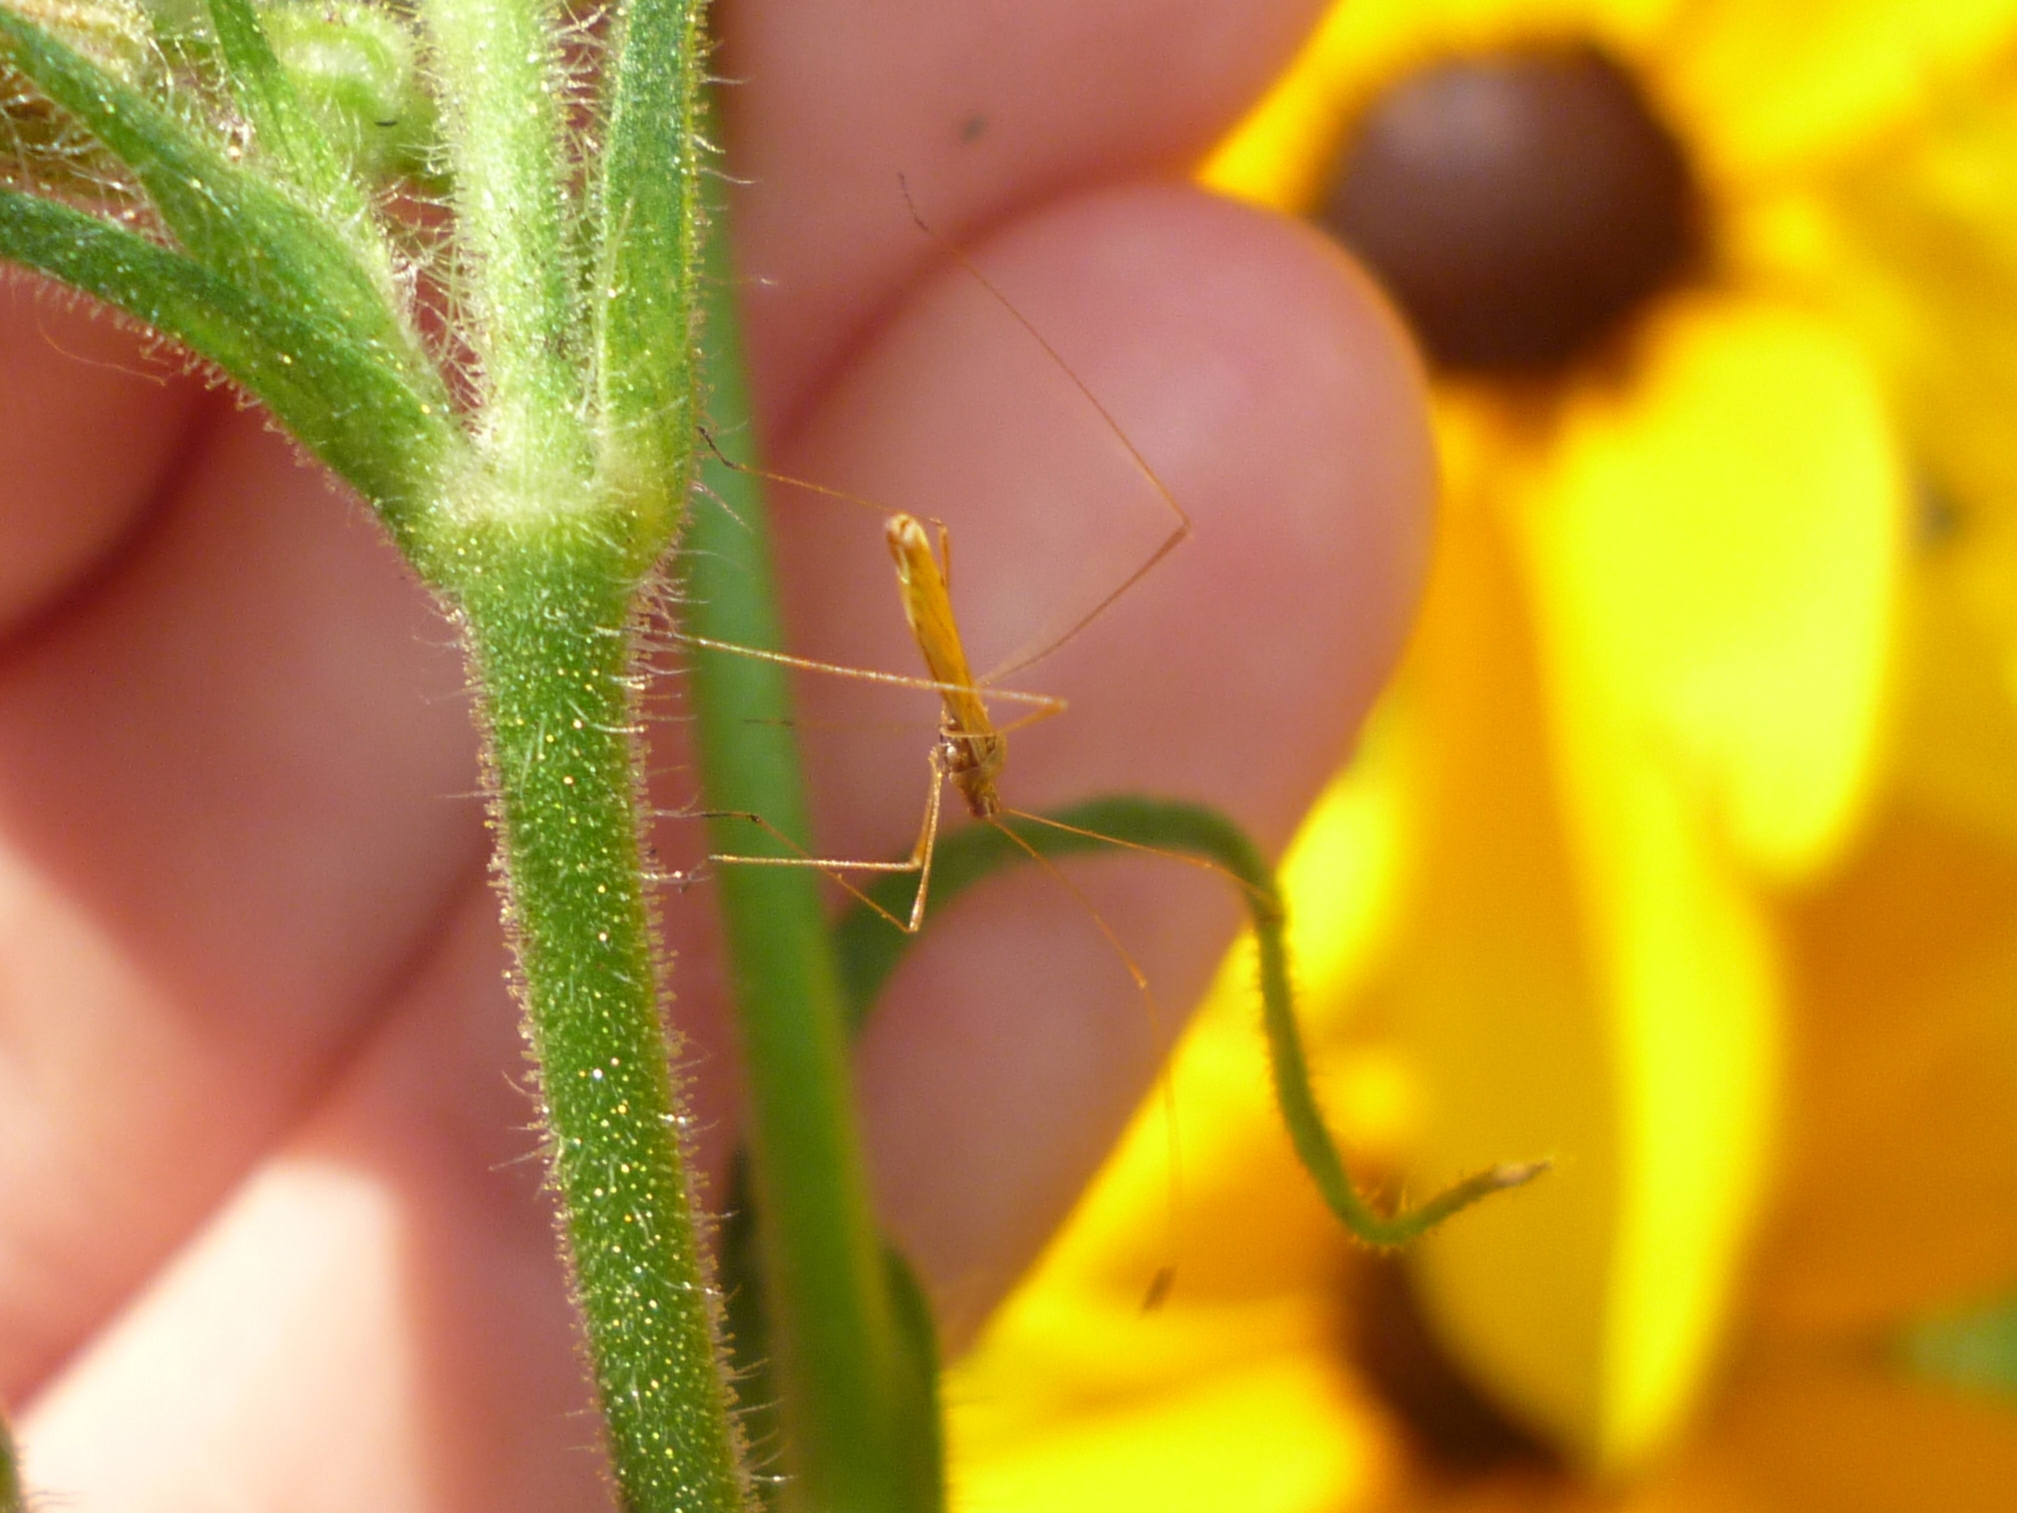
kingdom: Animalia
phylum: Arthropoda
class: Insecta
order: Hemiptera
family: Berytidae
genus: Neoneides
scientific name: Neoneides muticus
